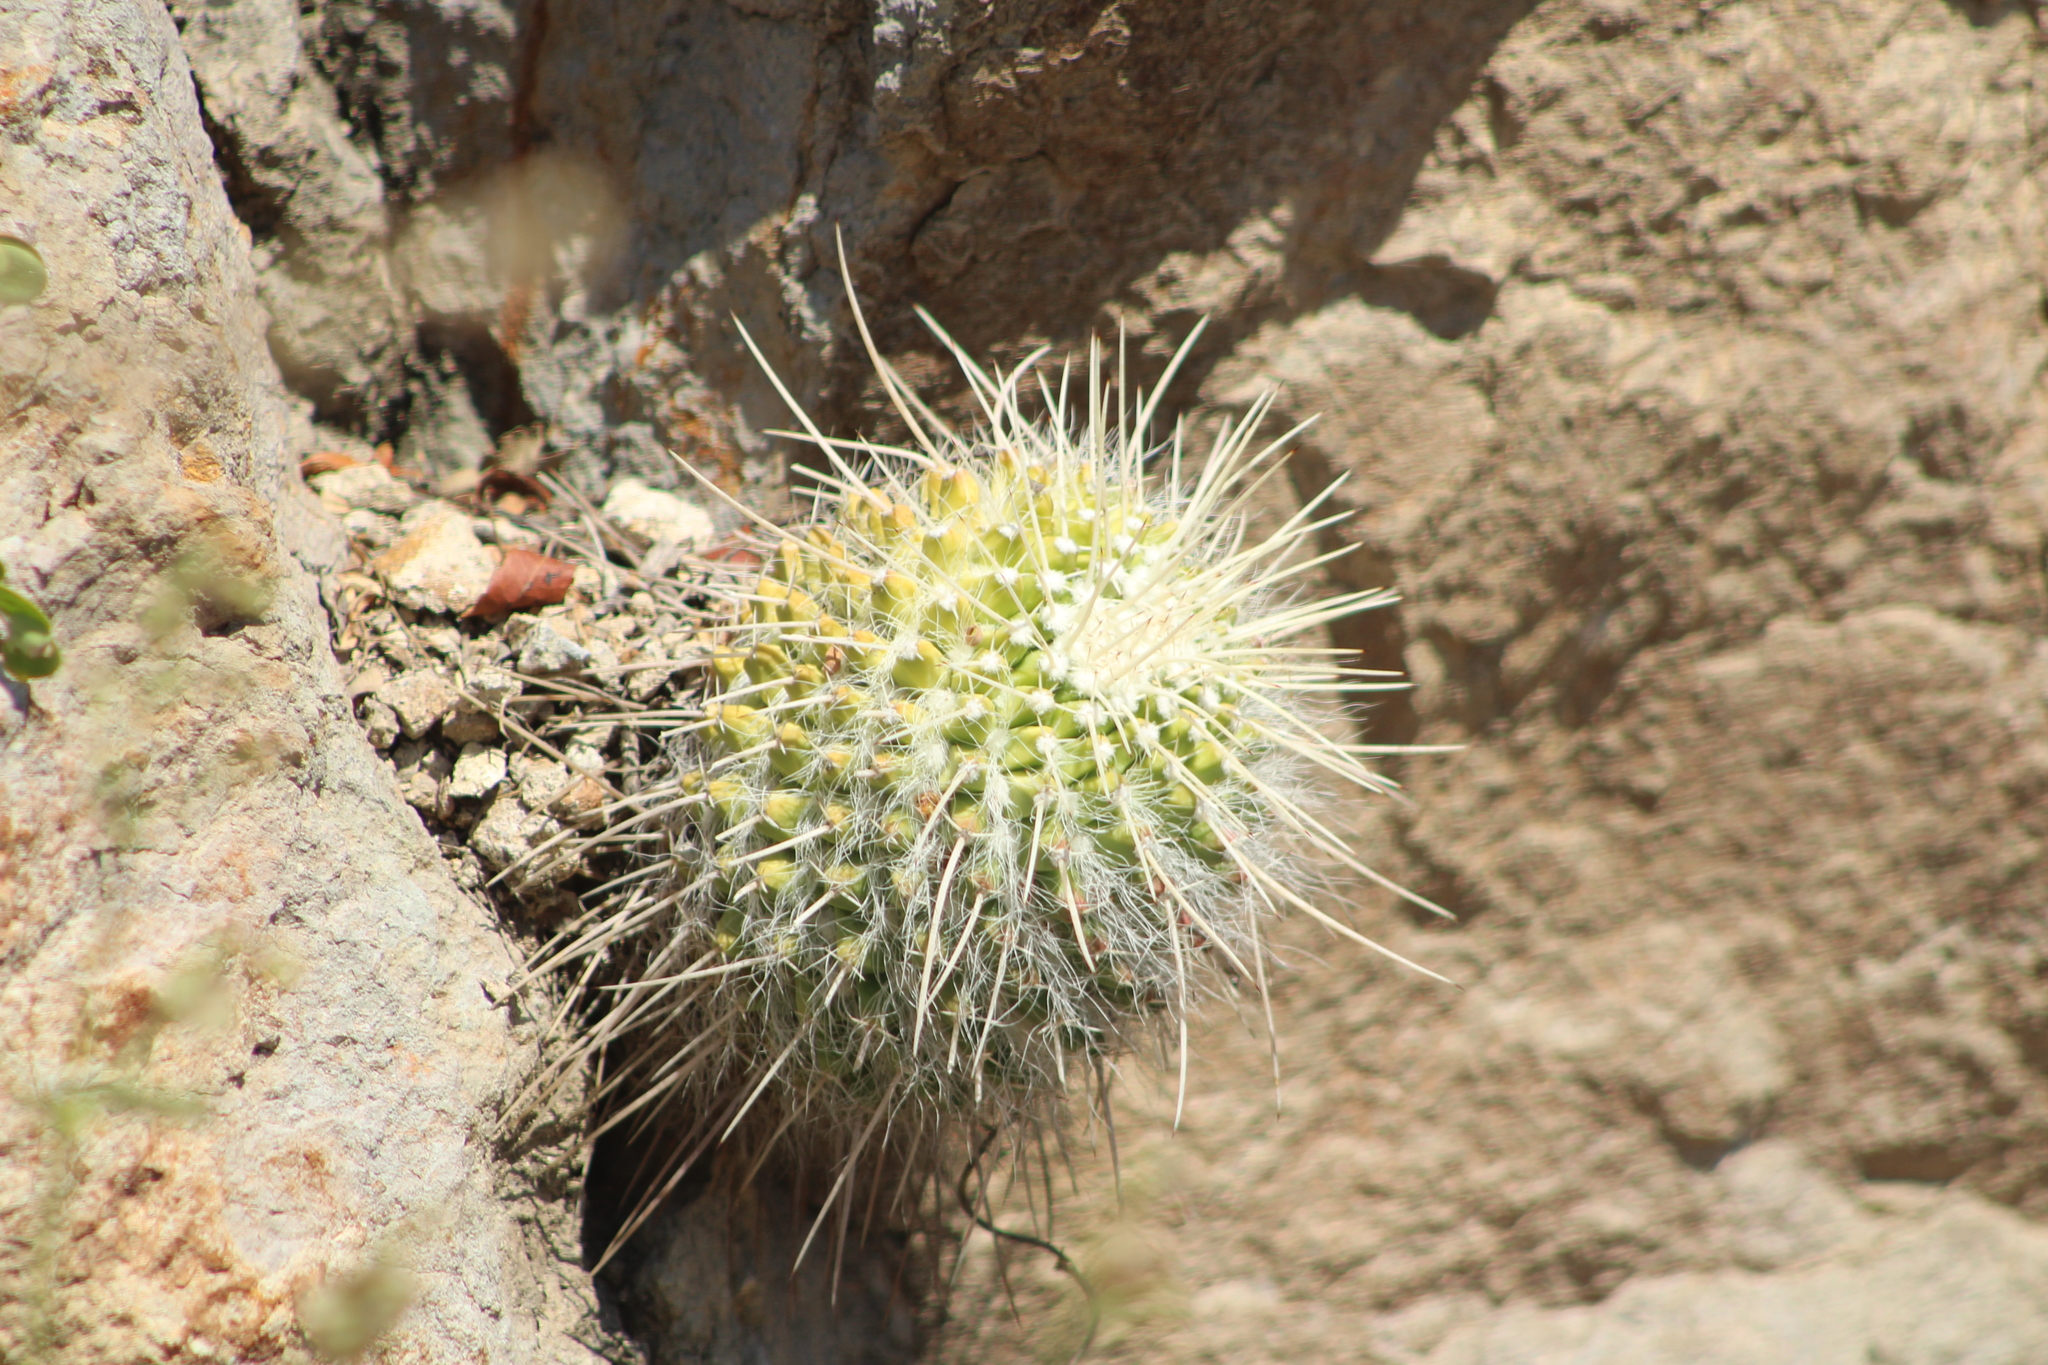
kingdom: Plantae
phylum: Tracheophyta
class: Magnoliopsida
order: Caryophyllales
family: Cactaceae
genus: Mammillaria
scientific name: Mammillaria karwinskiana
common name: Royal cross
